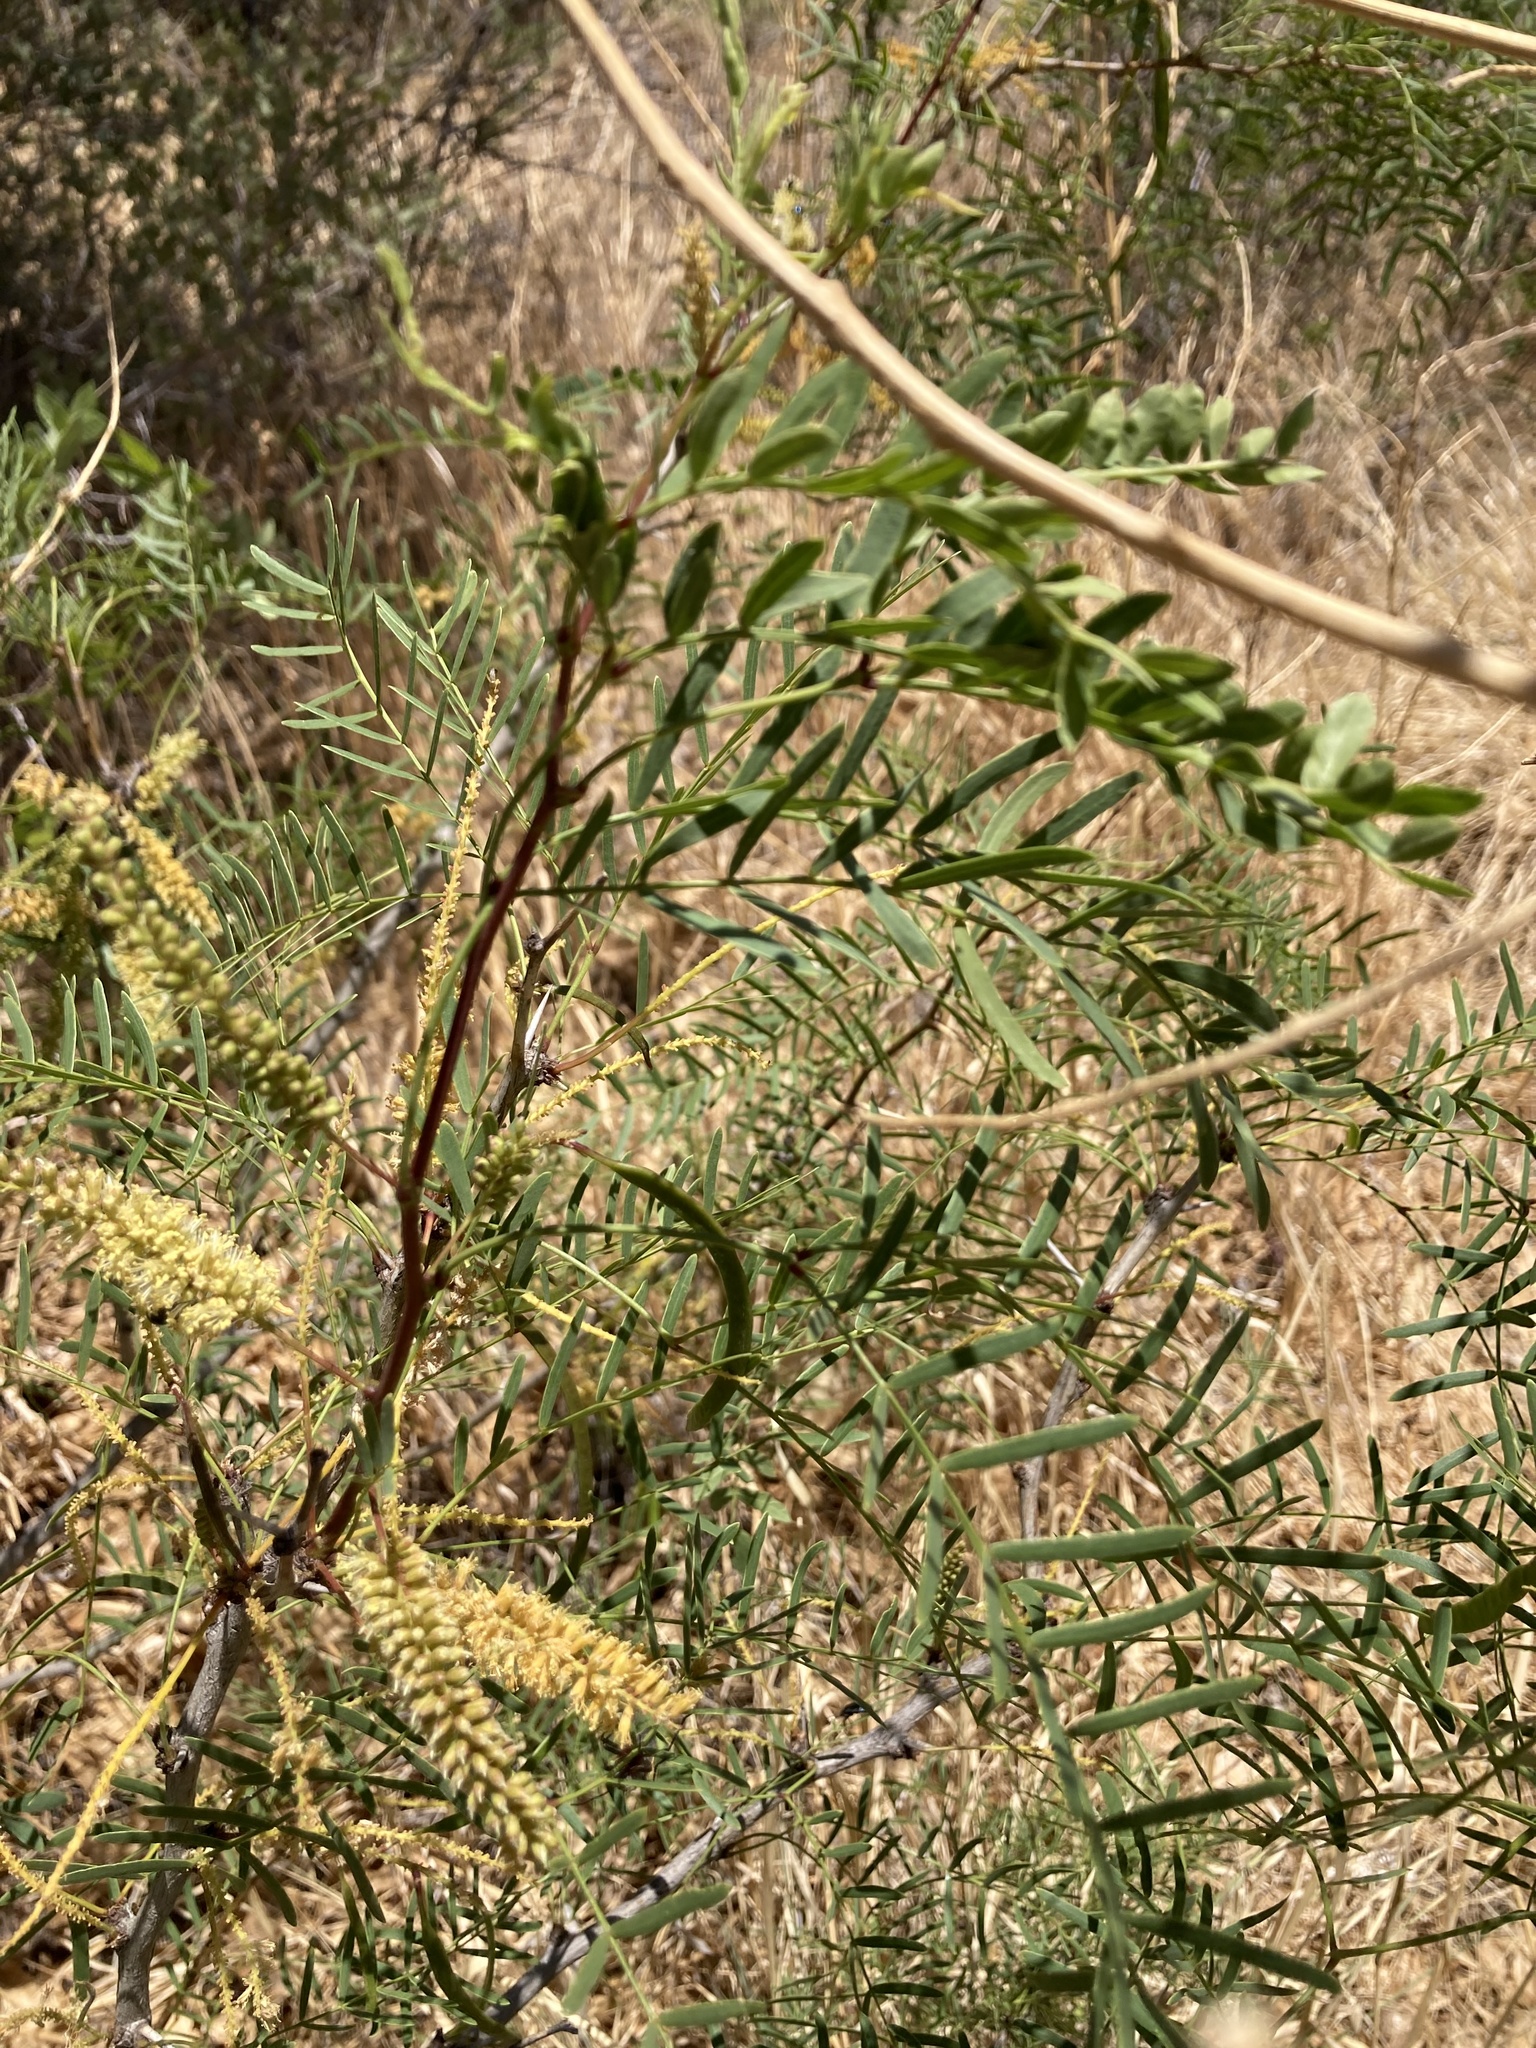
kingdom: Plantae
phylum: Tracheophyta
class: Magnoliopsida
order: Fabales
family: Fabaceae
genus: Prosopis
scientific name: Prosopis glandulosa
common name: Honey mesquite
